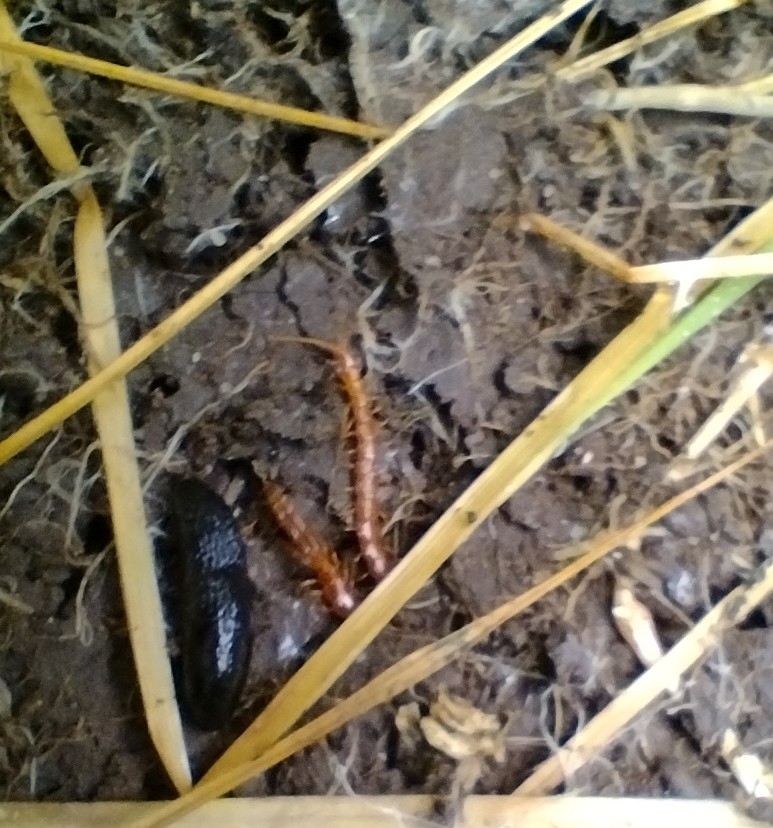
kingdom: Animalia
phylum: Arthropoda
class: Chilopoda
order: Scolopendromorpha
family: Cryptopidae
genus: Cryptops
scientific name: Cryptops
